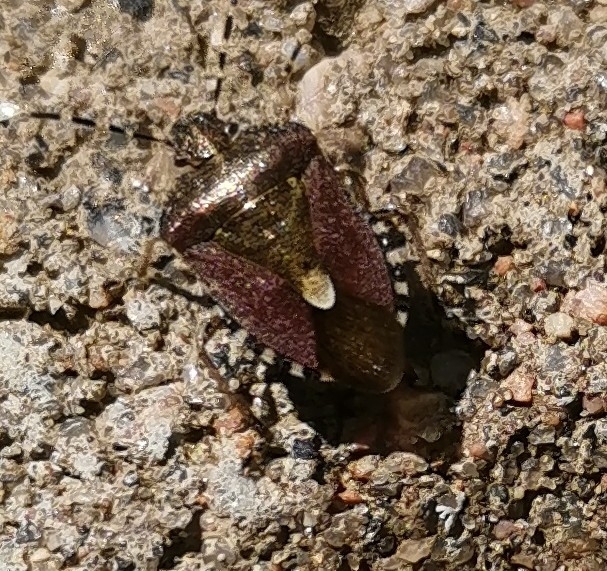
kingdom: Animalia
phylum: Arthropoda
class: Insecta
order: Hemiptera
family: Pentatomidae
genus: Dolycoris
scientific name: Dolycoris baccarum
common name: Sloe bug
